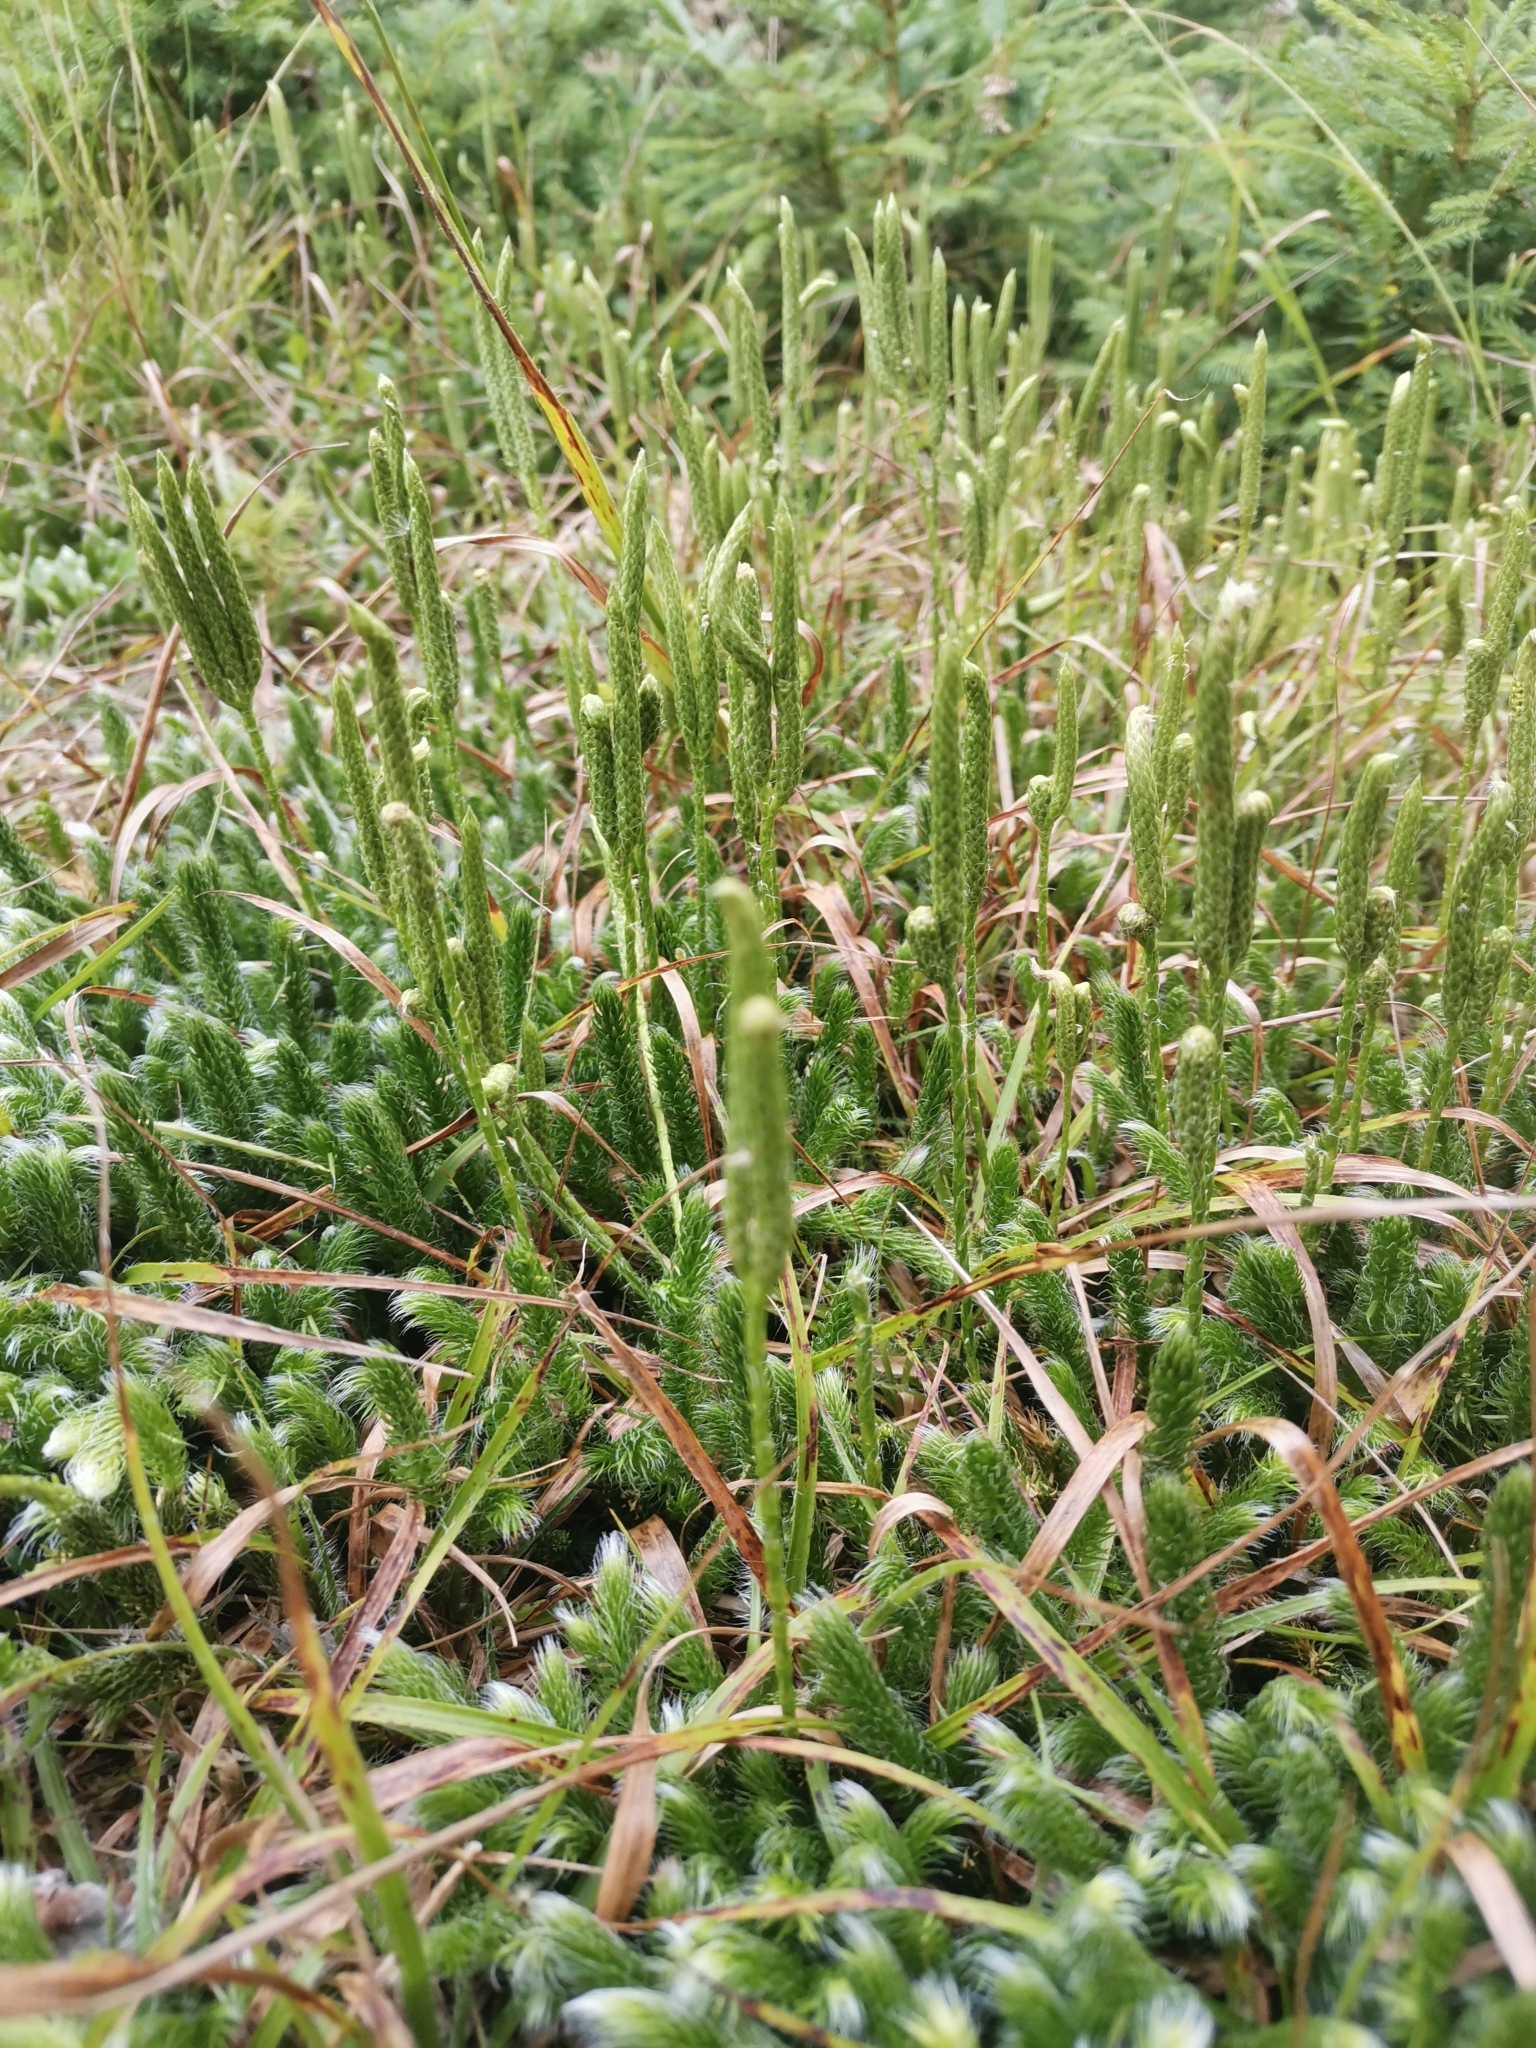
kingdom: Plantae
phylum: Tracheophyta
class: Lycopodiopsida
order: Lycopodiales
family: Lycopodiaceae
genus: Lycopodium
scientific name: Lycopodium clavatum
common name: Stag's-horn clubmoss
